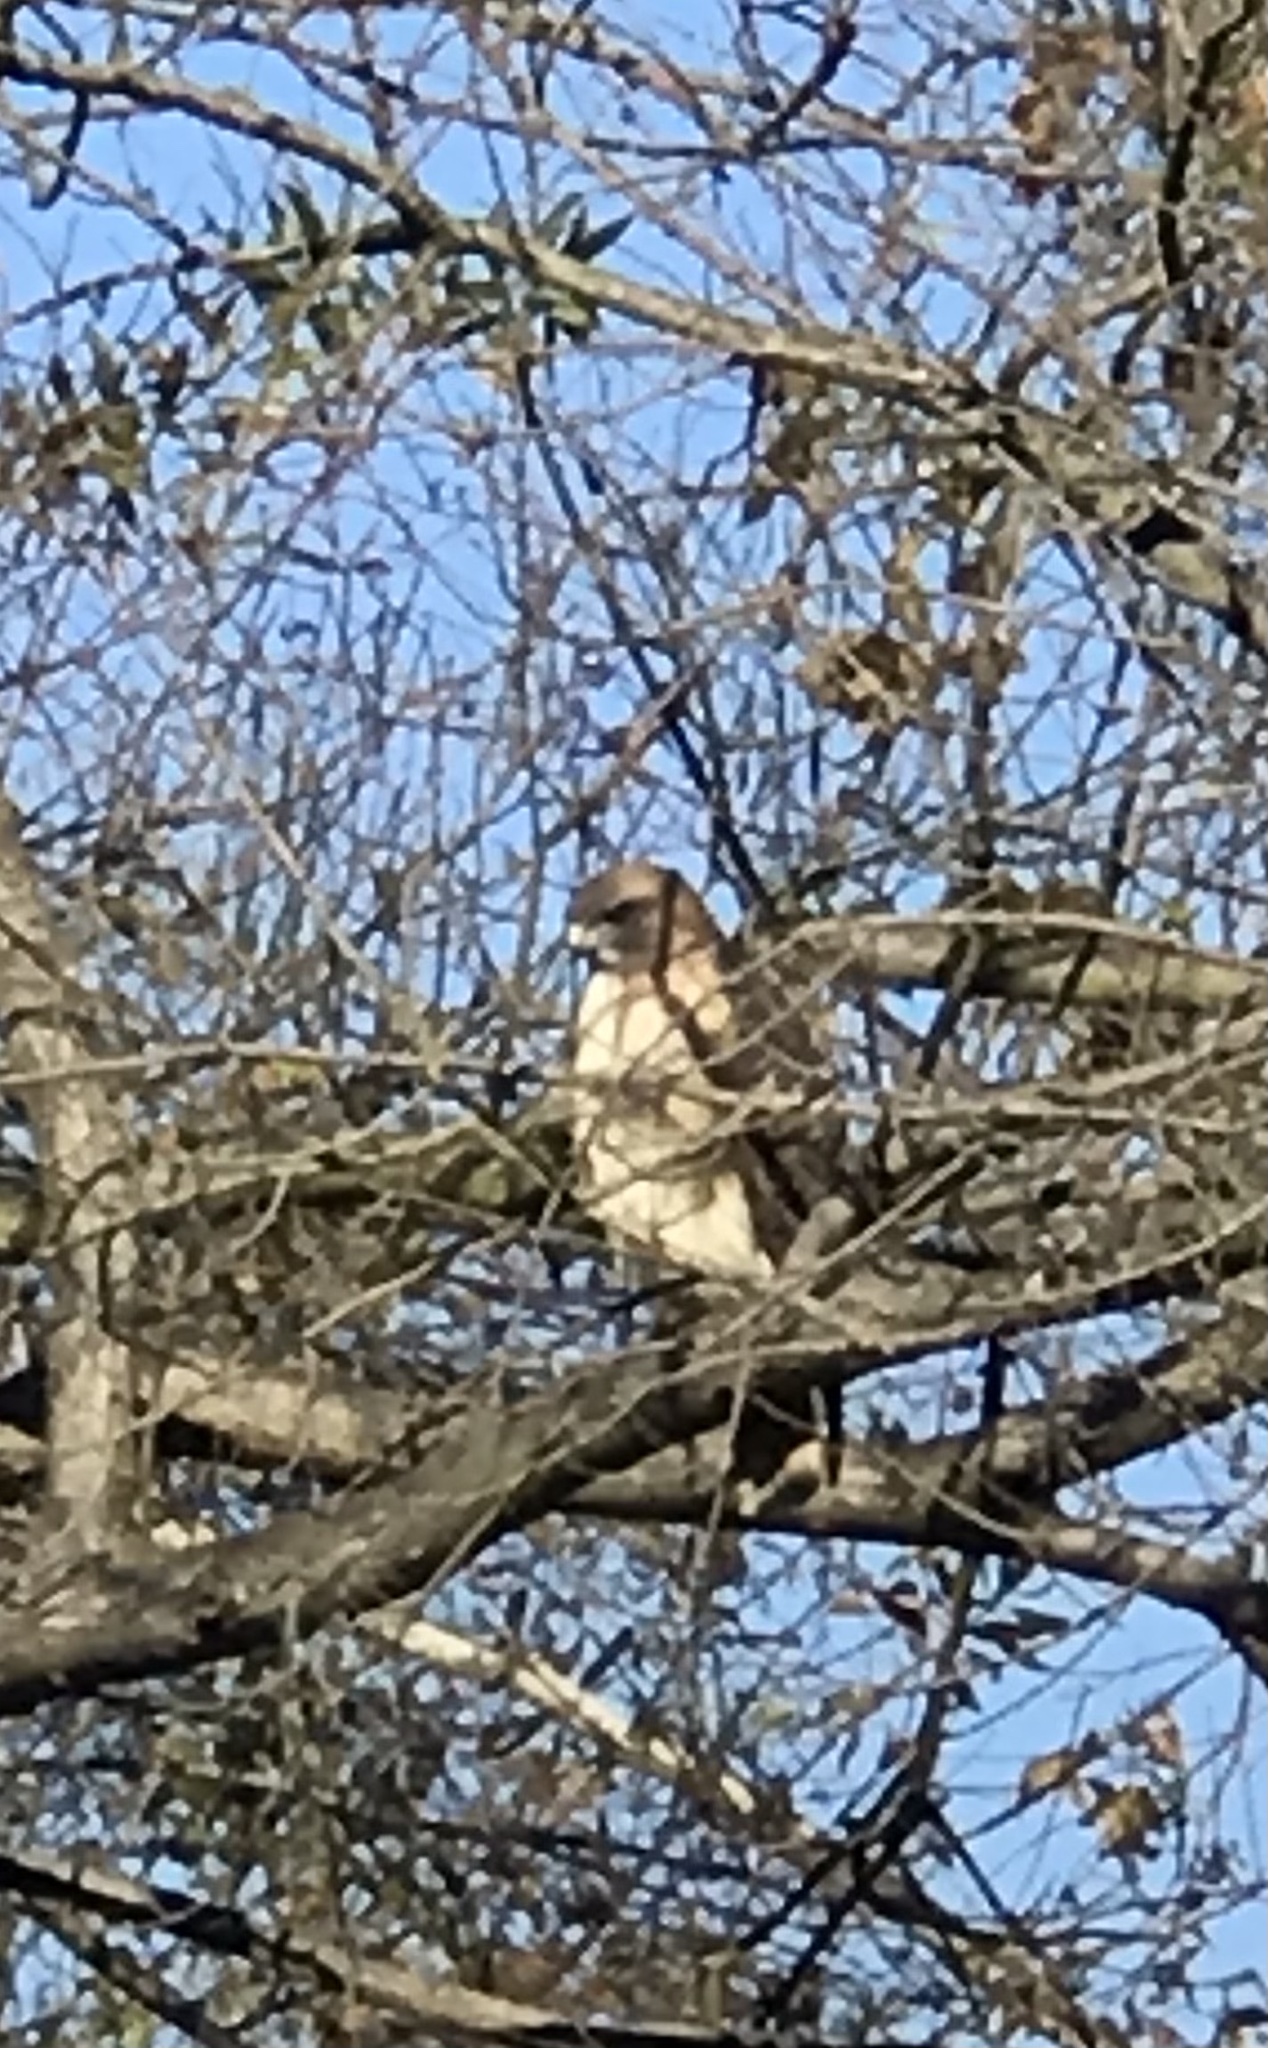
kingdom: Animalia
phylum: Chordata
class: Aves
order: Accipitriformes
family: Accipitridae
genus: Buteo
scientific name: Buteo jamaicensis
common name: Red-tailed hawk
